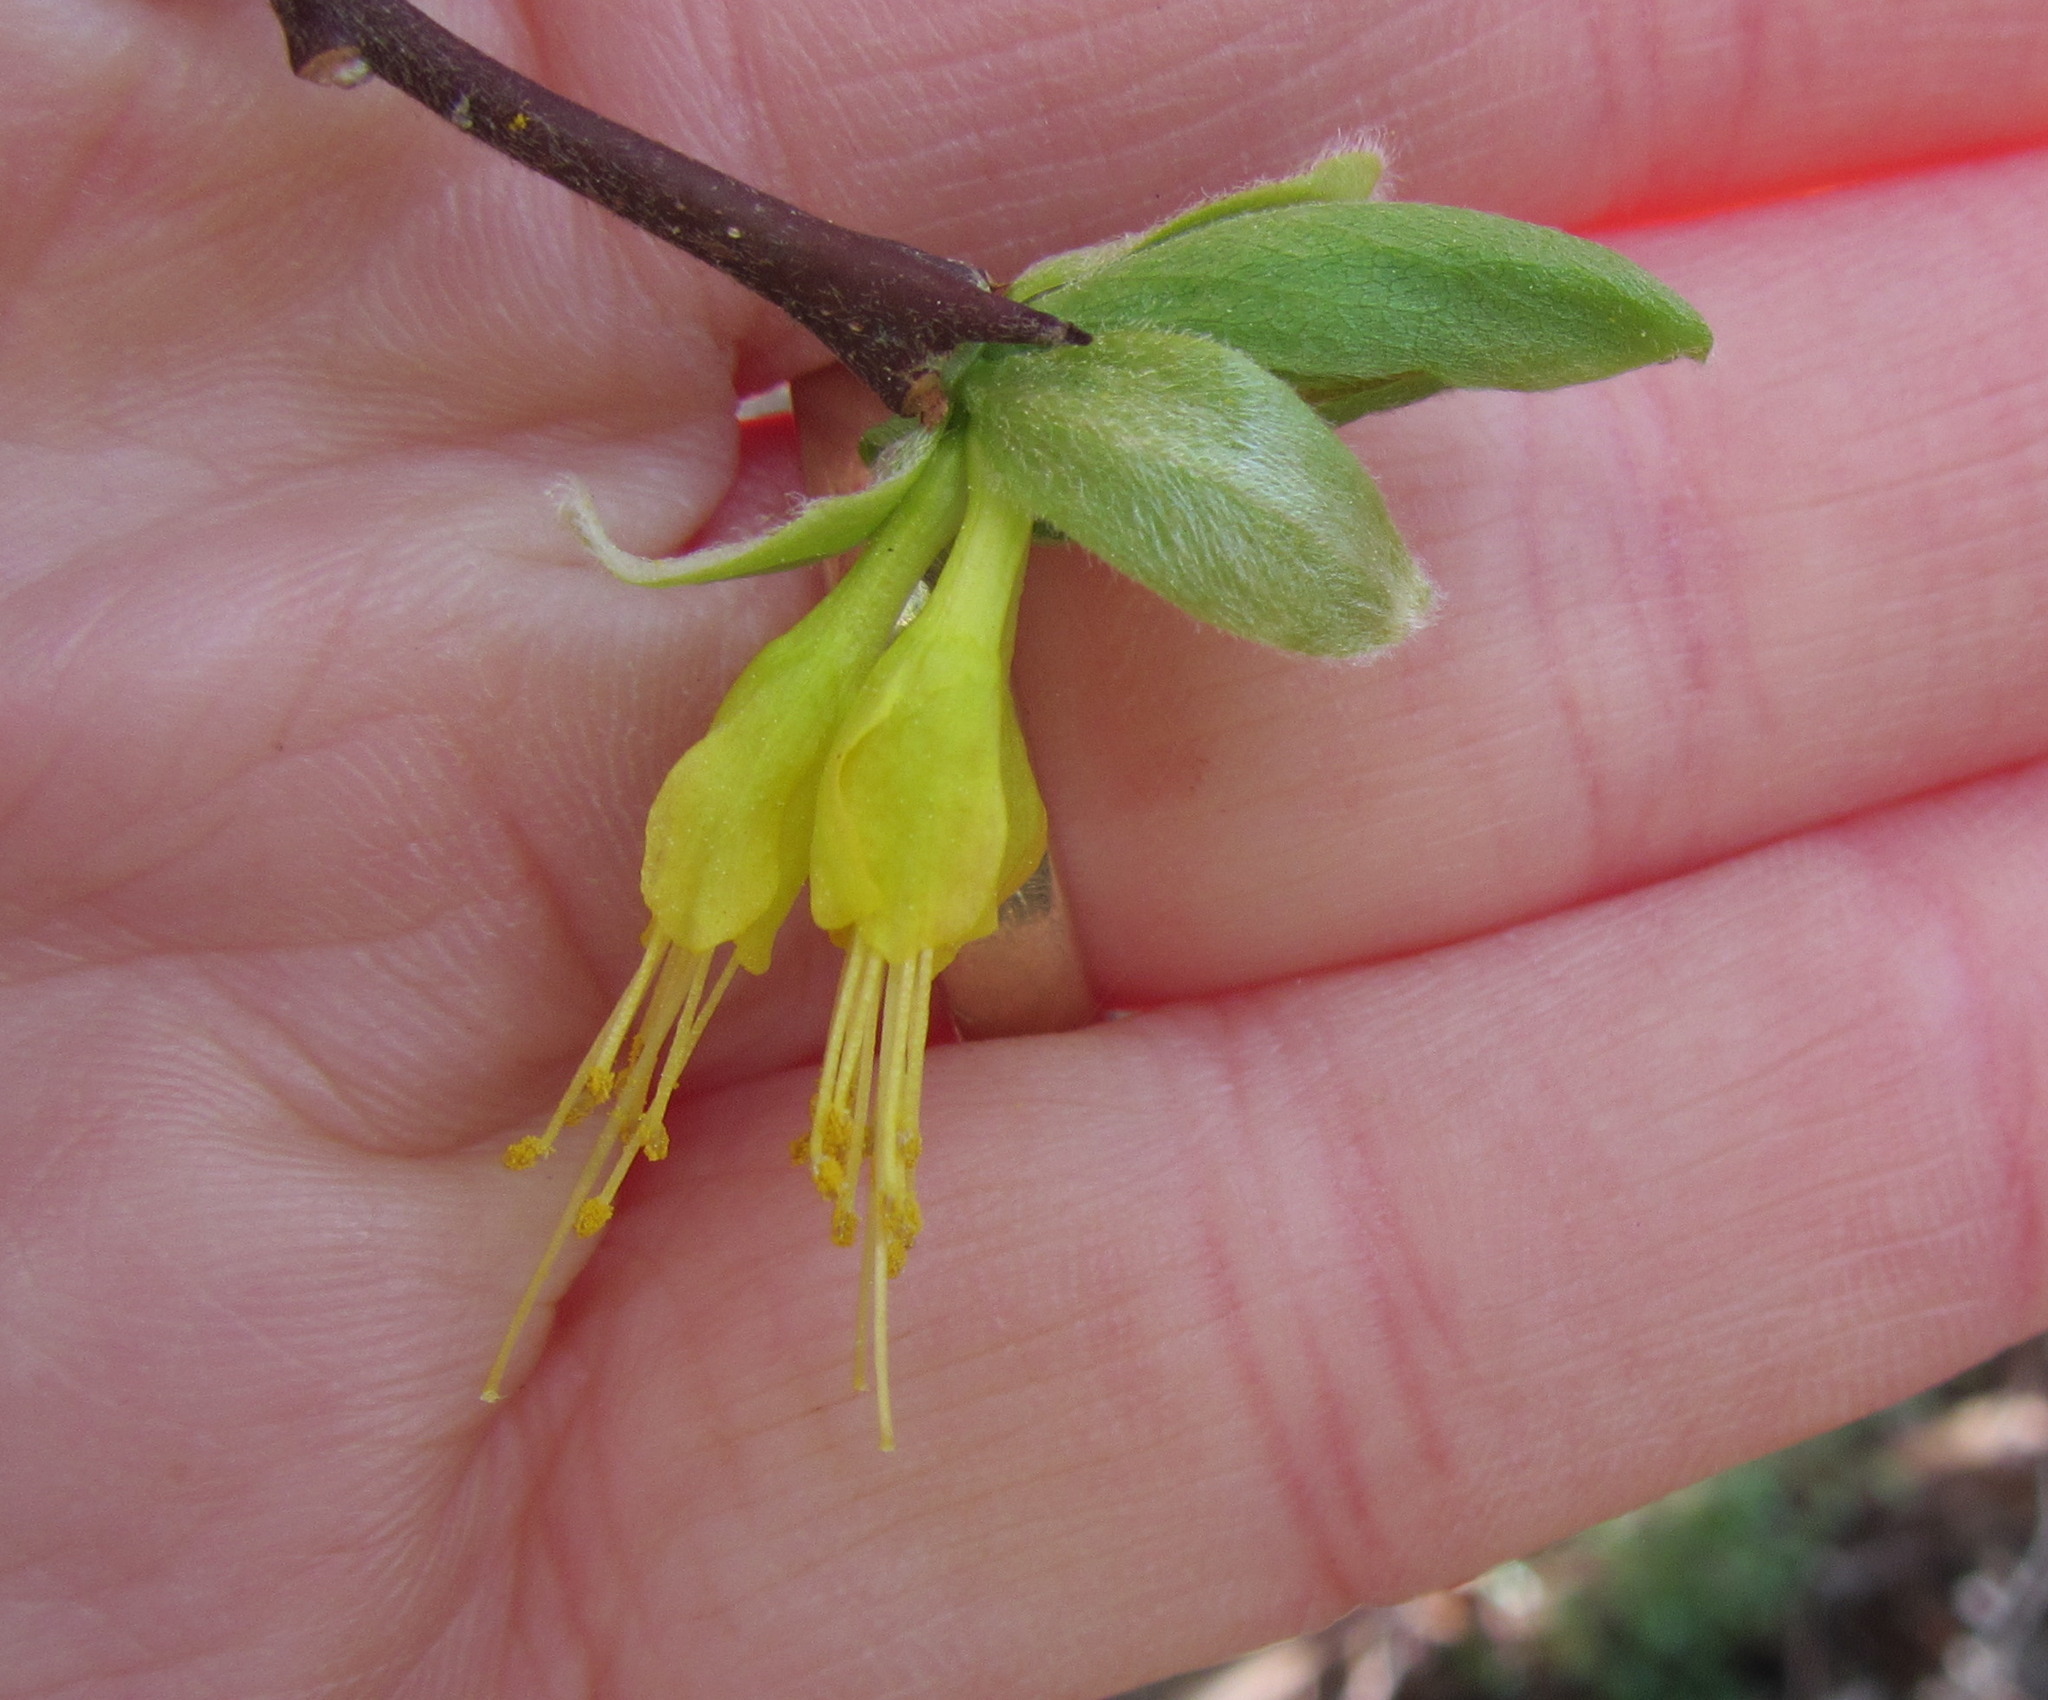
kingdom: Plantae
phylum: Tracheophyta
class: Magnoliopsida
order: Malvales
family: Thymelaeaceae
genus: Dirca
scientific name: Dirca occidentalis
